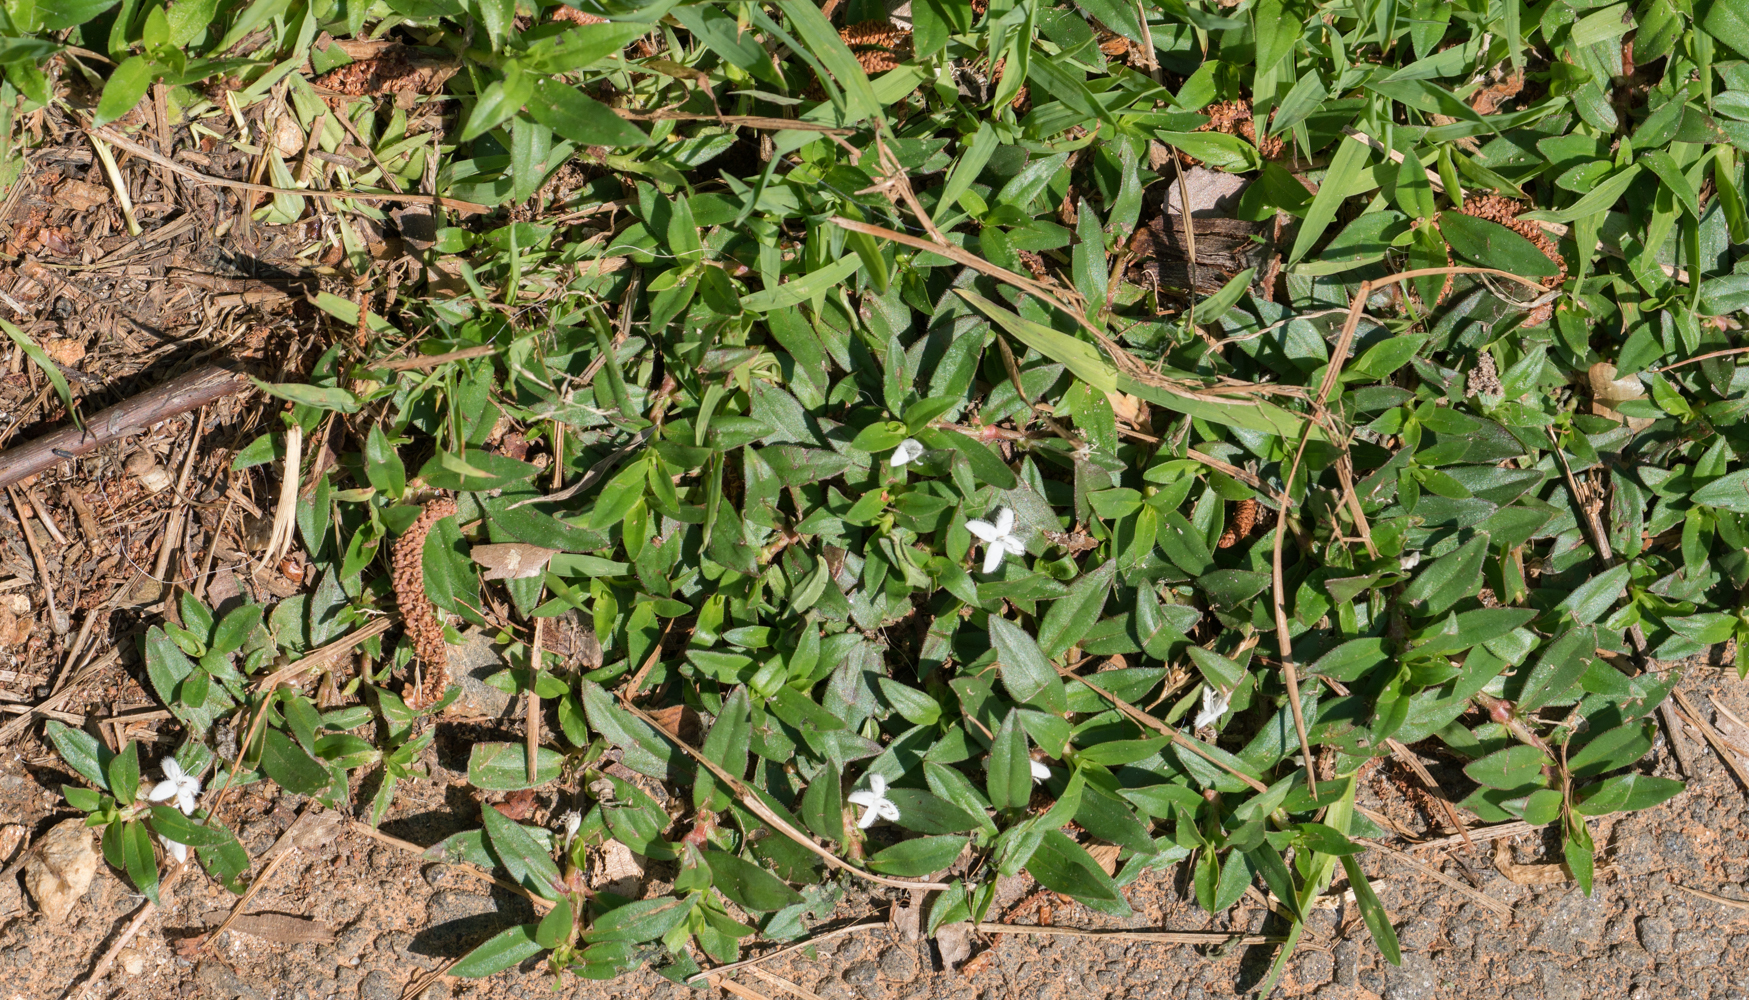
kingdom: Plantae
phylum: Tracheophyta
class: Magnoliopsida
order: Gentianales
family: Rubiaceae
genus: Diodia
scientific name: Diodia virginiana
